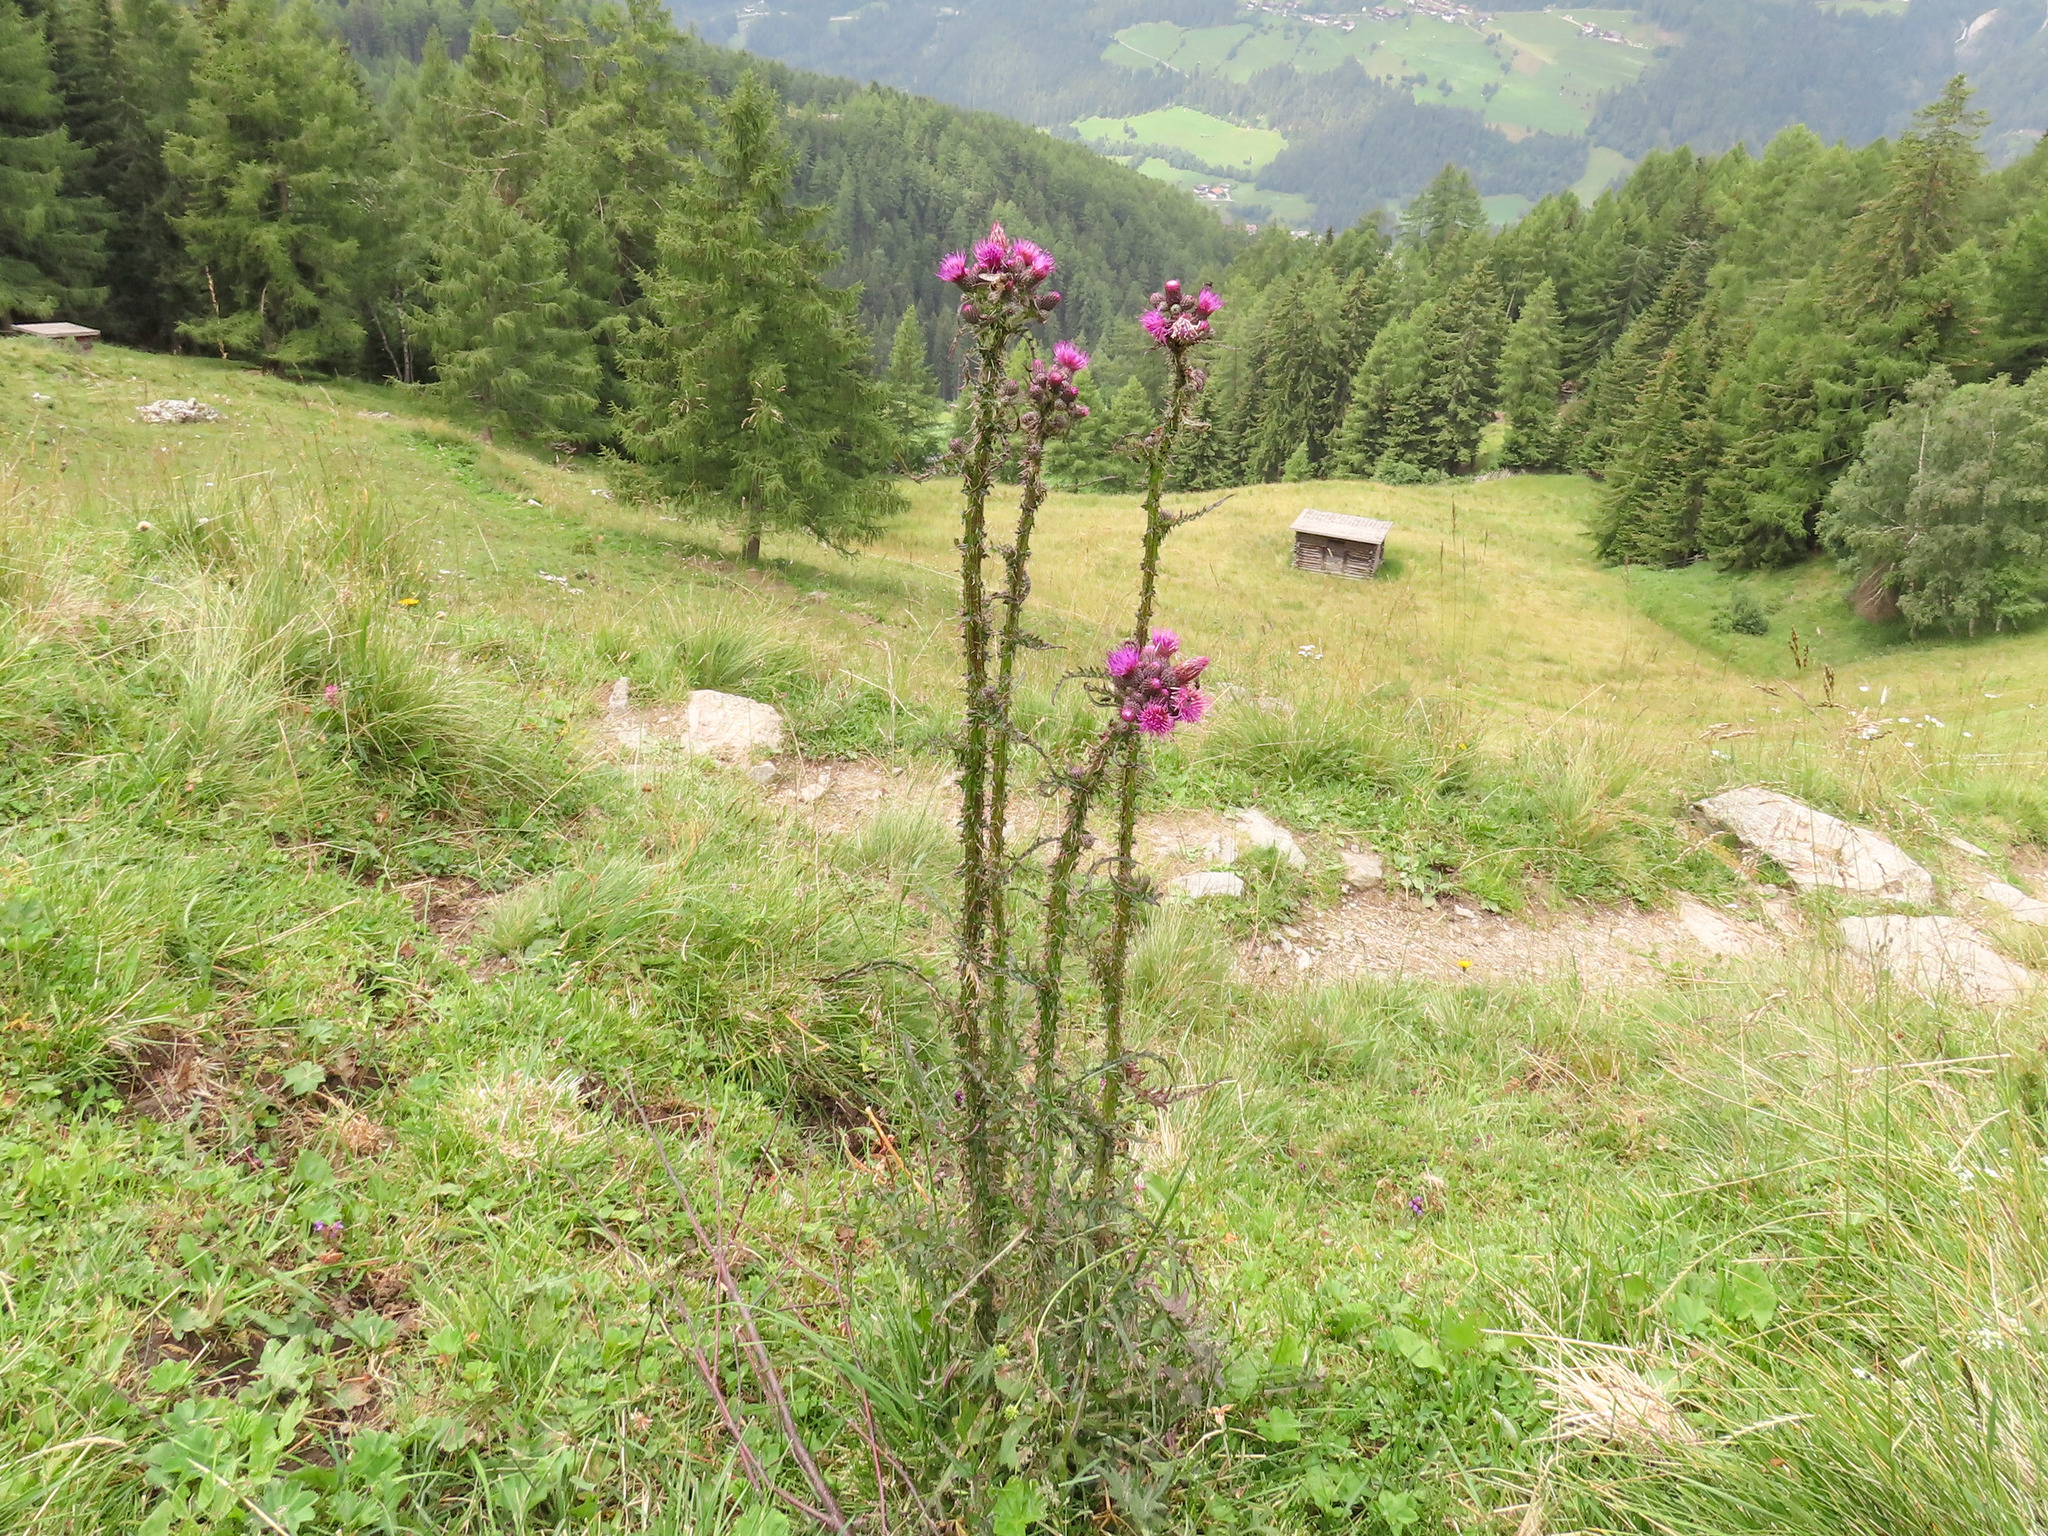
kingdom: Plantae
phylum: Tracheophyta
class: Magnoliopsida
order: Asterales
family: Asteraceae
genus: Cirsium
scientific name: Cirsium palustre
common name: Marsh thistle
